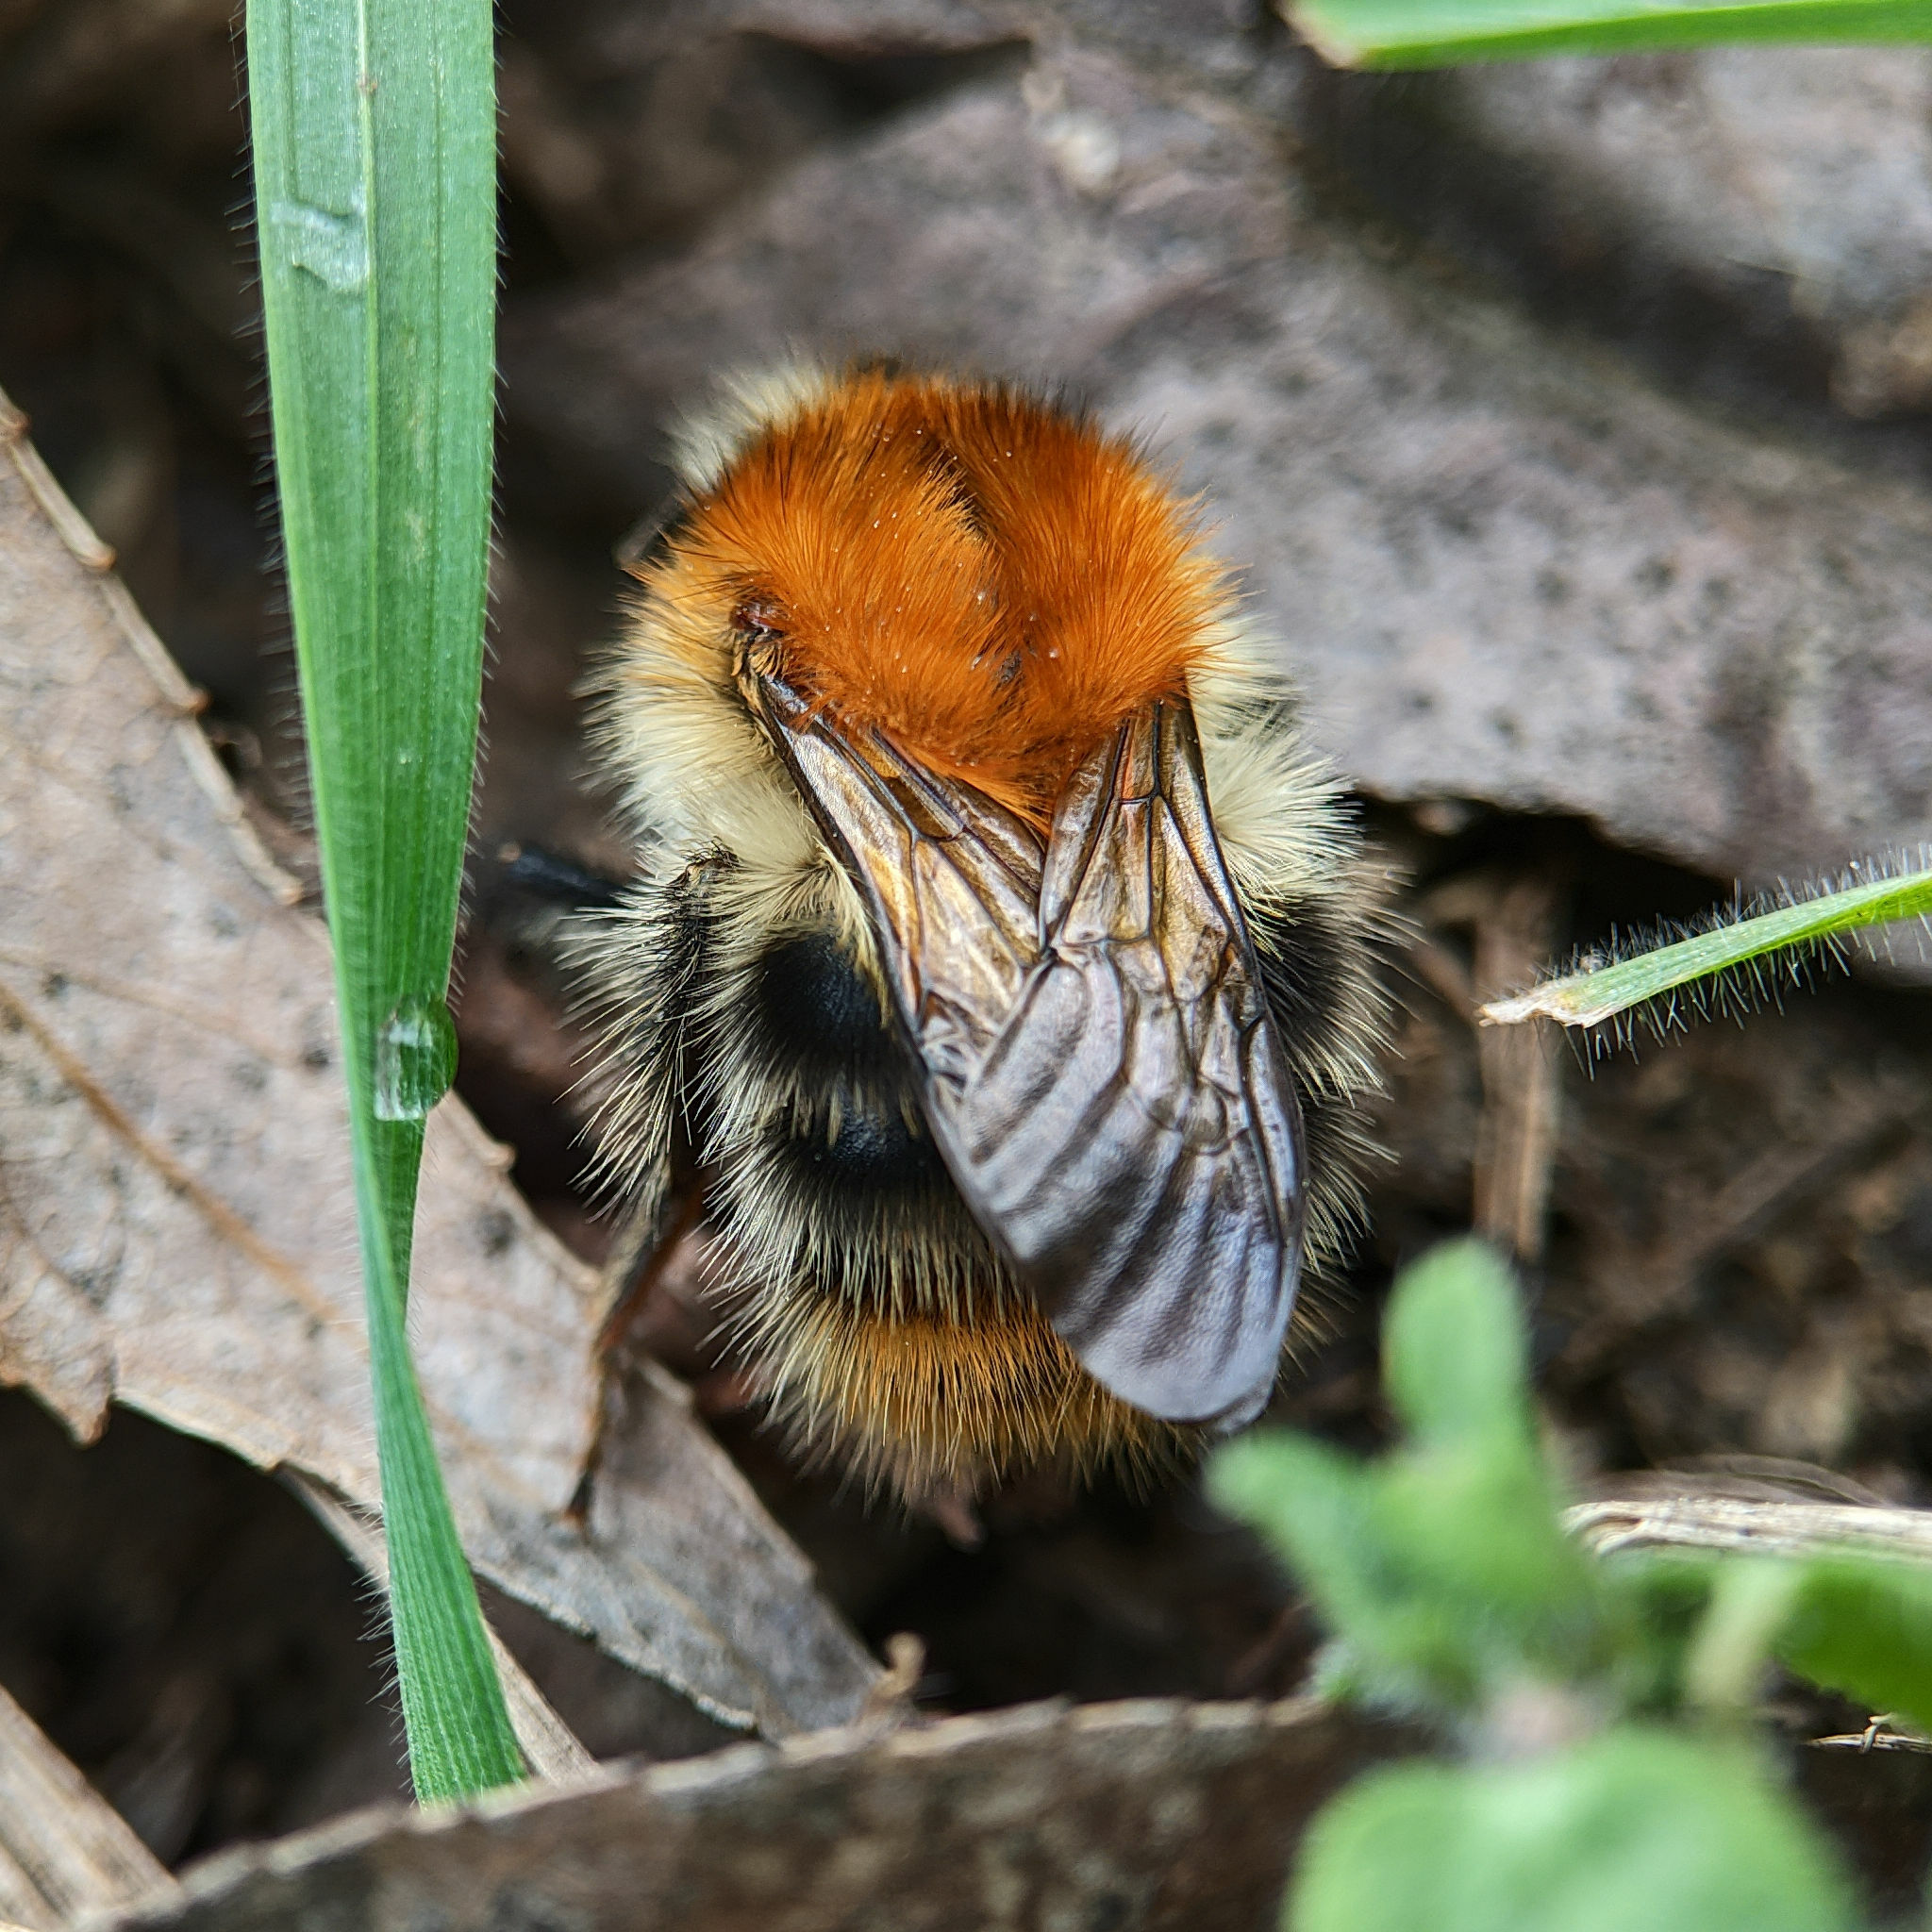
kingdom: Animalia
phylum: Arthropoda
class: Insecta
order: Hymenoptera
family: Apidae
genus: Bombus
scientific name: Bombus pascuorum
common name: Common carder bee
